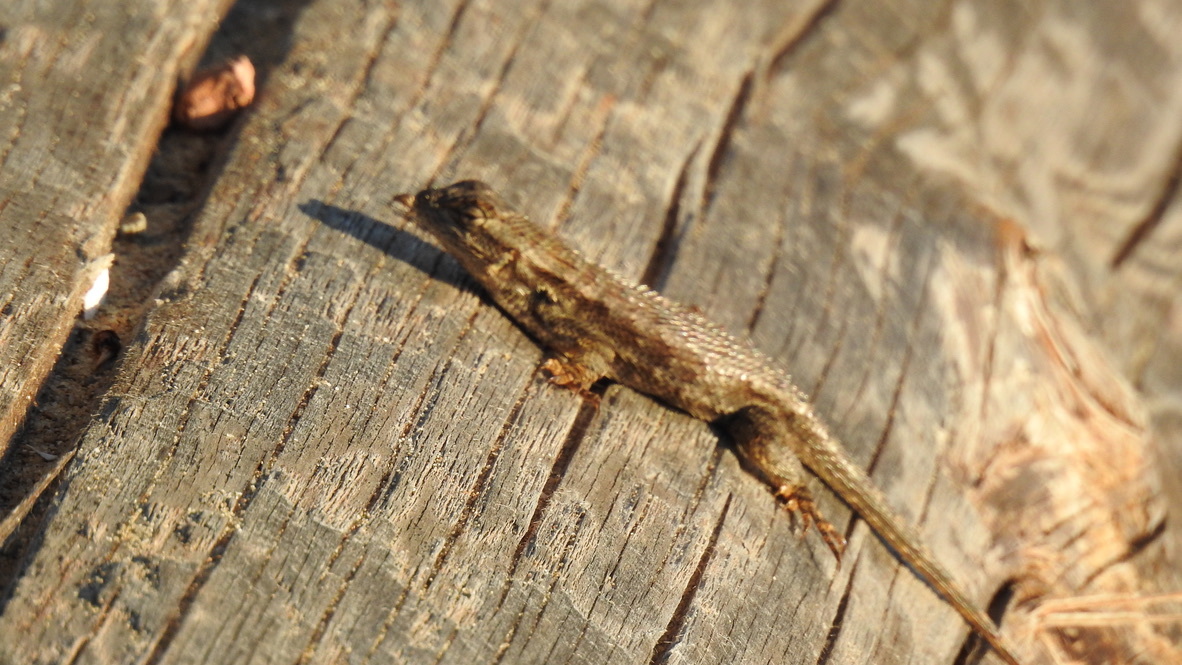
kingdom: Animalia
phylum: Chordata
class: Squamata
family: Phrynosomatidae
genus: Sceloporus
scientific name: Sceloporus occidentalis
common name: Western fence lizard
